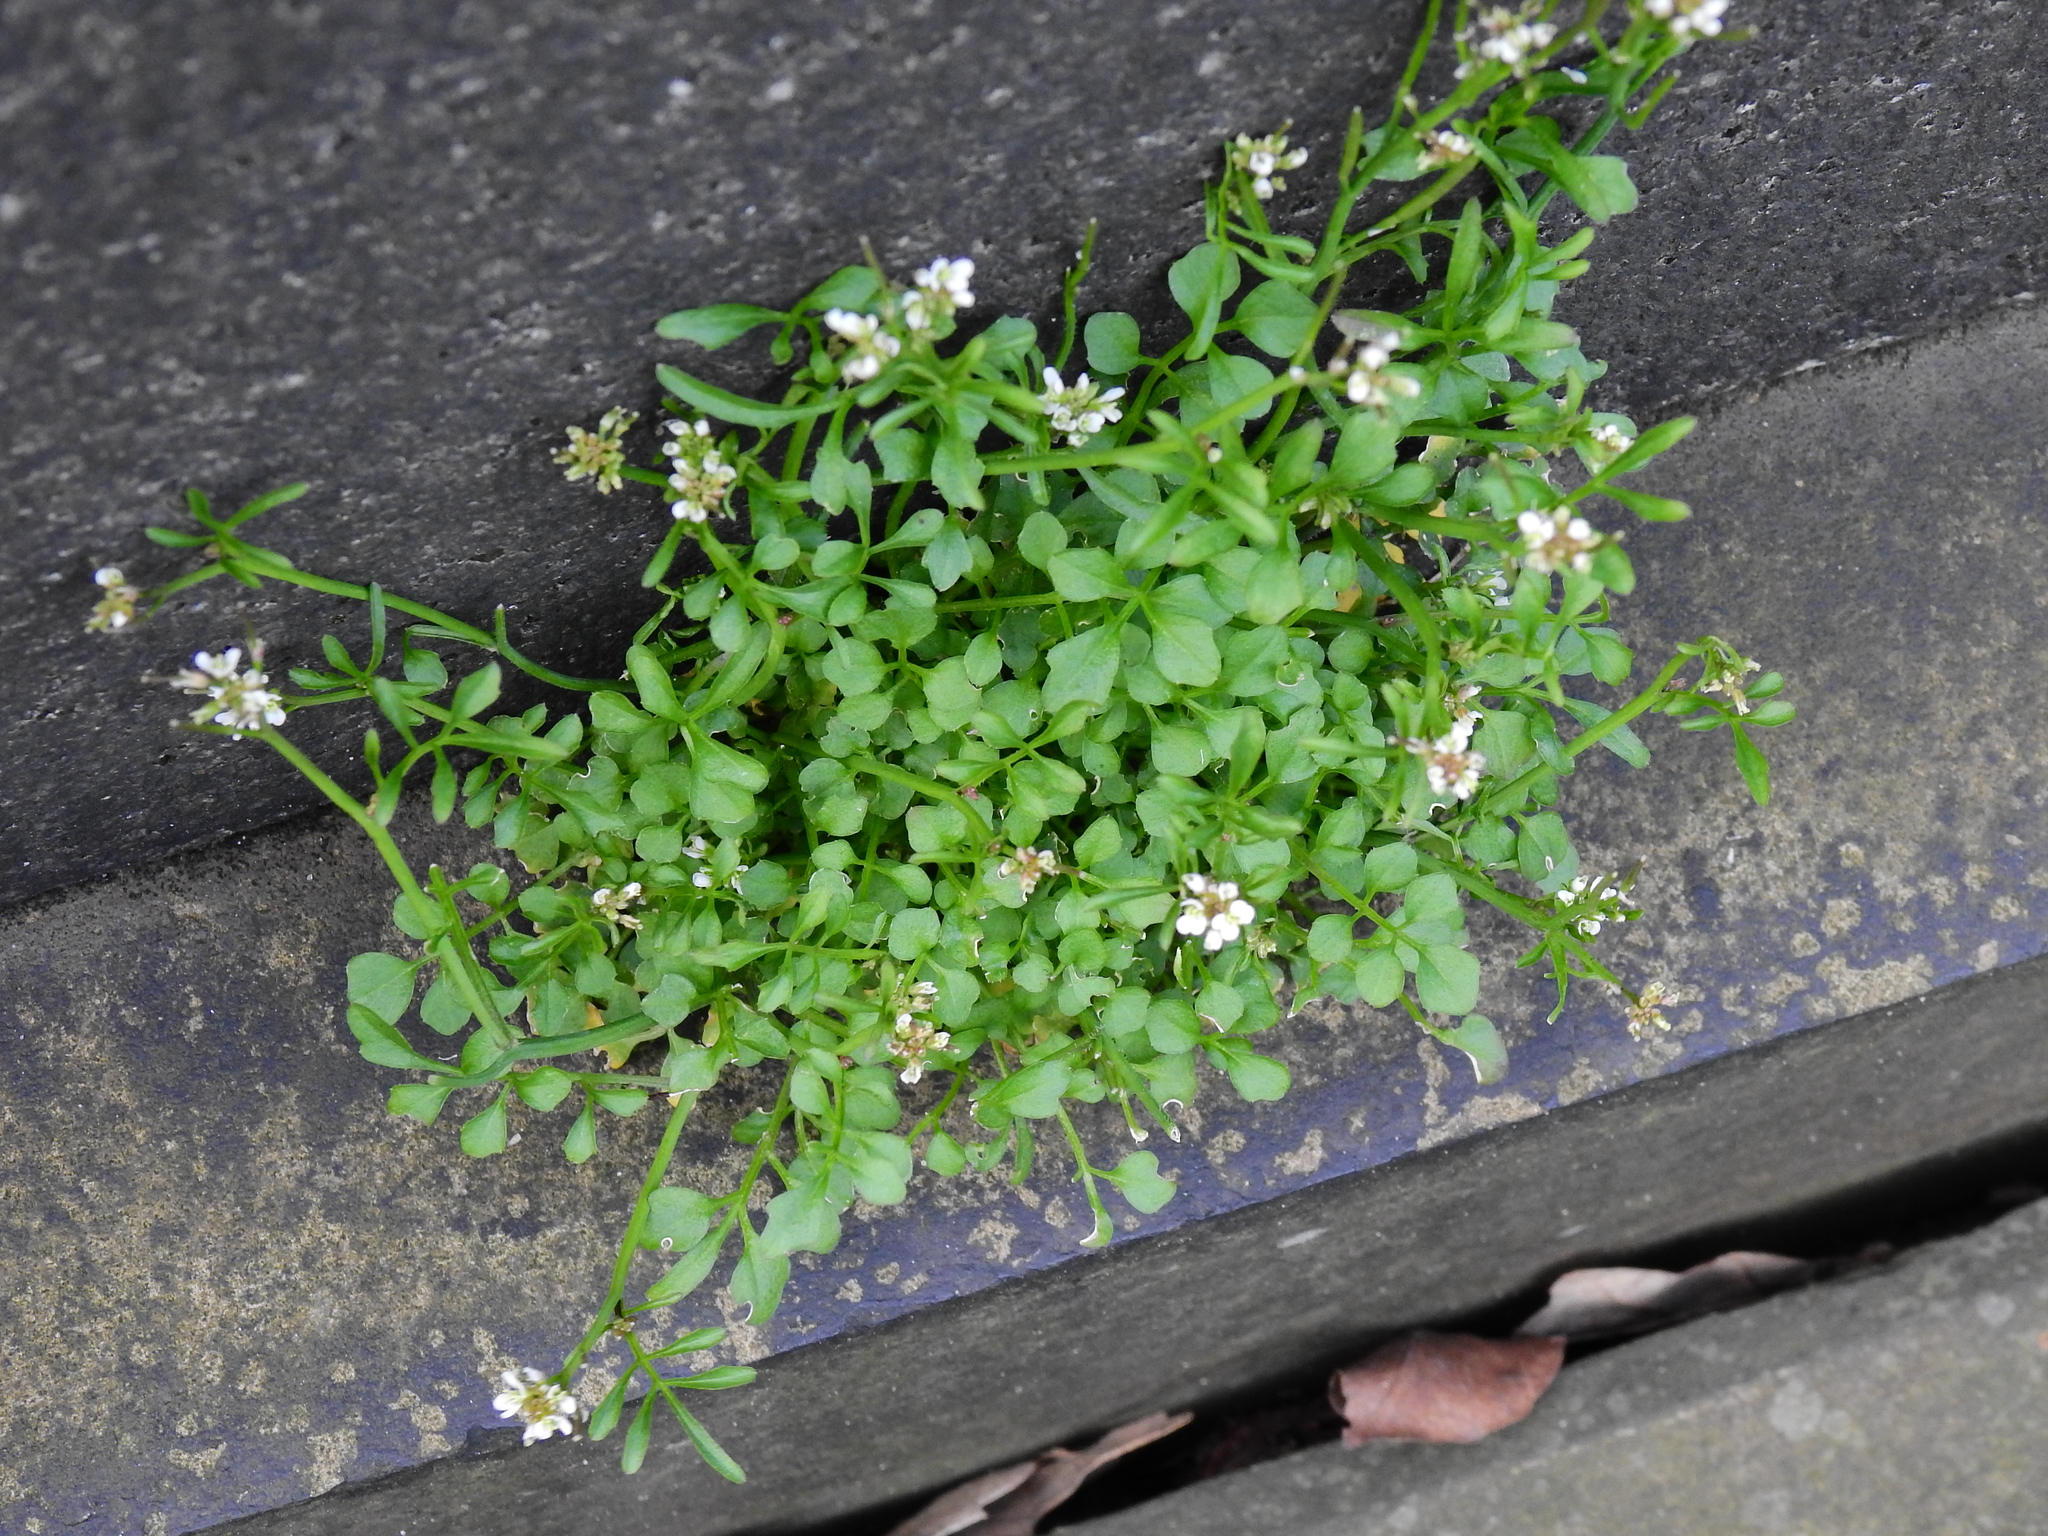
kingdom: Plantae
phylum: Tracheophyta
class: Magnoliopsida
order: Brassicales
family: Brassicaceae
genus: Cardamine
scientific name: Cardamine flexuosa
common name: Woodland bittercress
